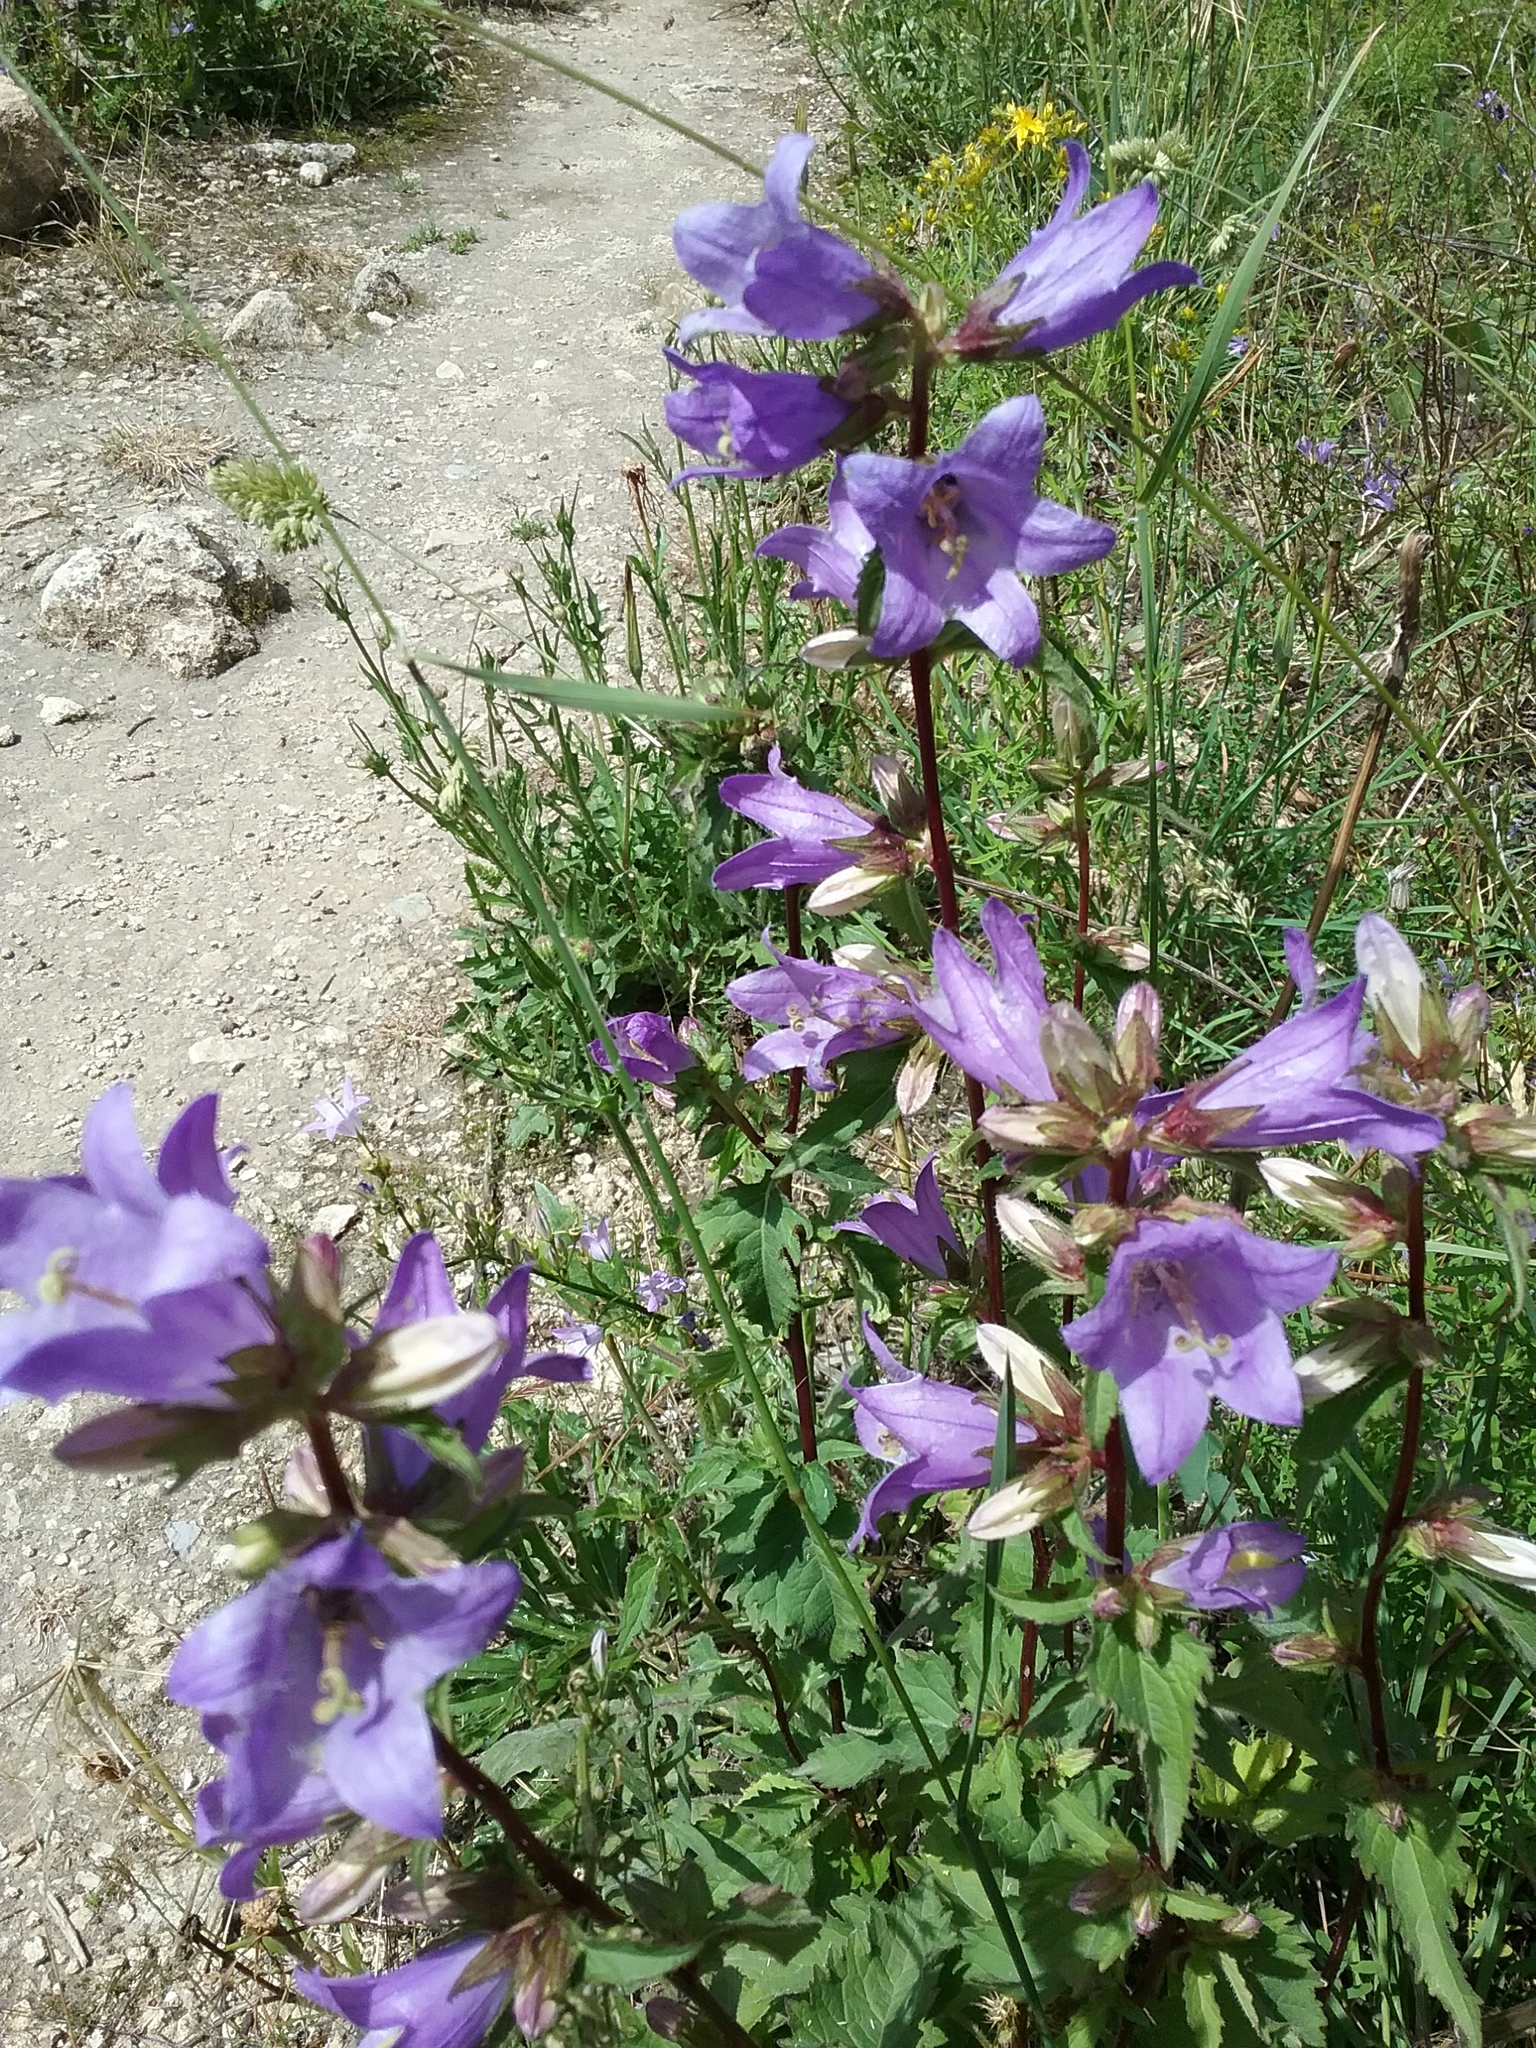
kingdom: Plantae
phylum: Tracheophyta
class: Magnoliopsida
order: Asterales
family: Campanulaceae
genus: Campanula
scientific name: Campanula trachelium
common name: Nettle-leaved bellflower
